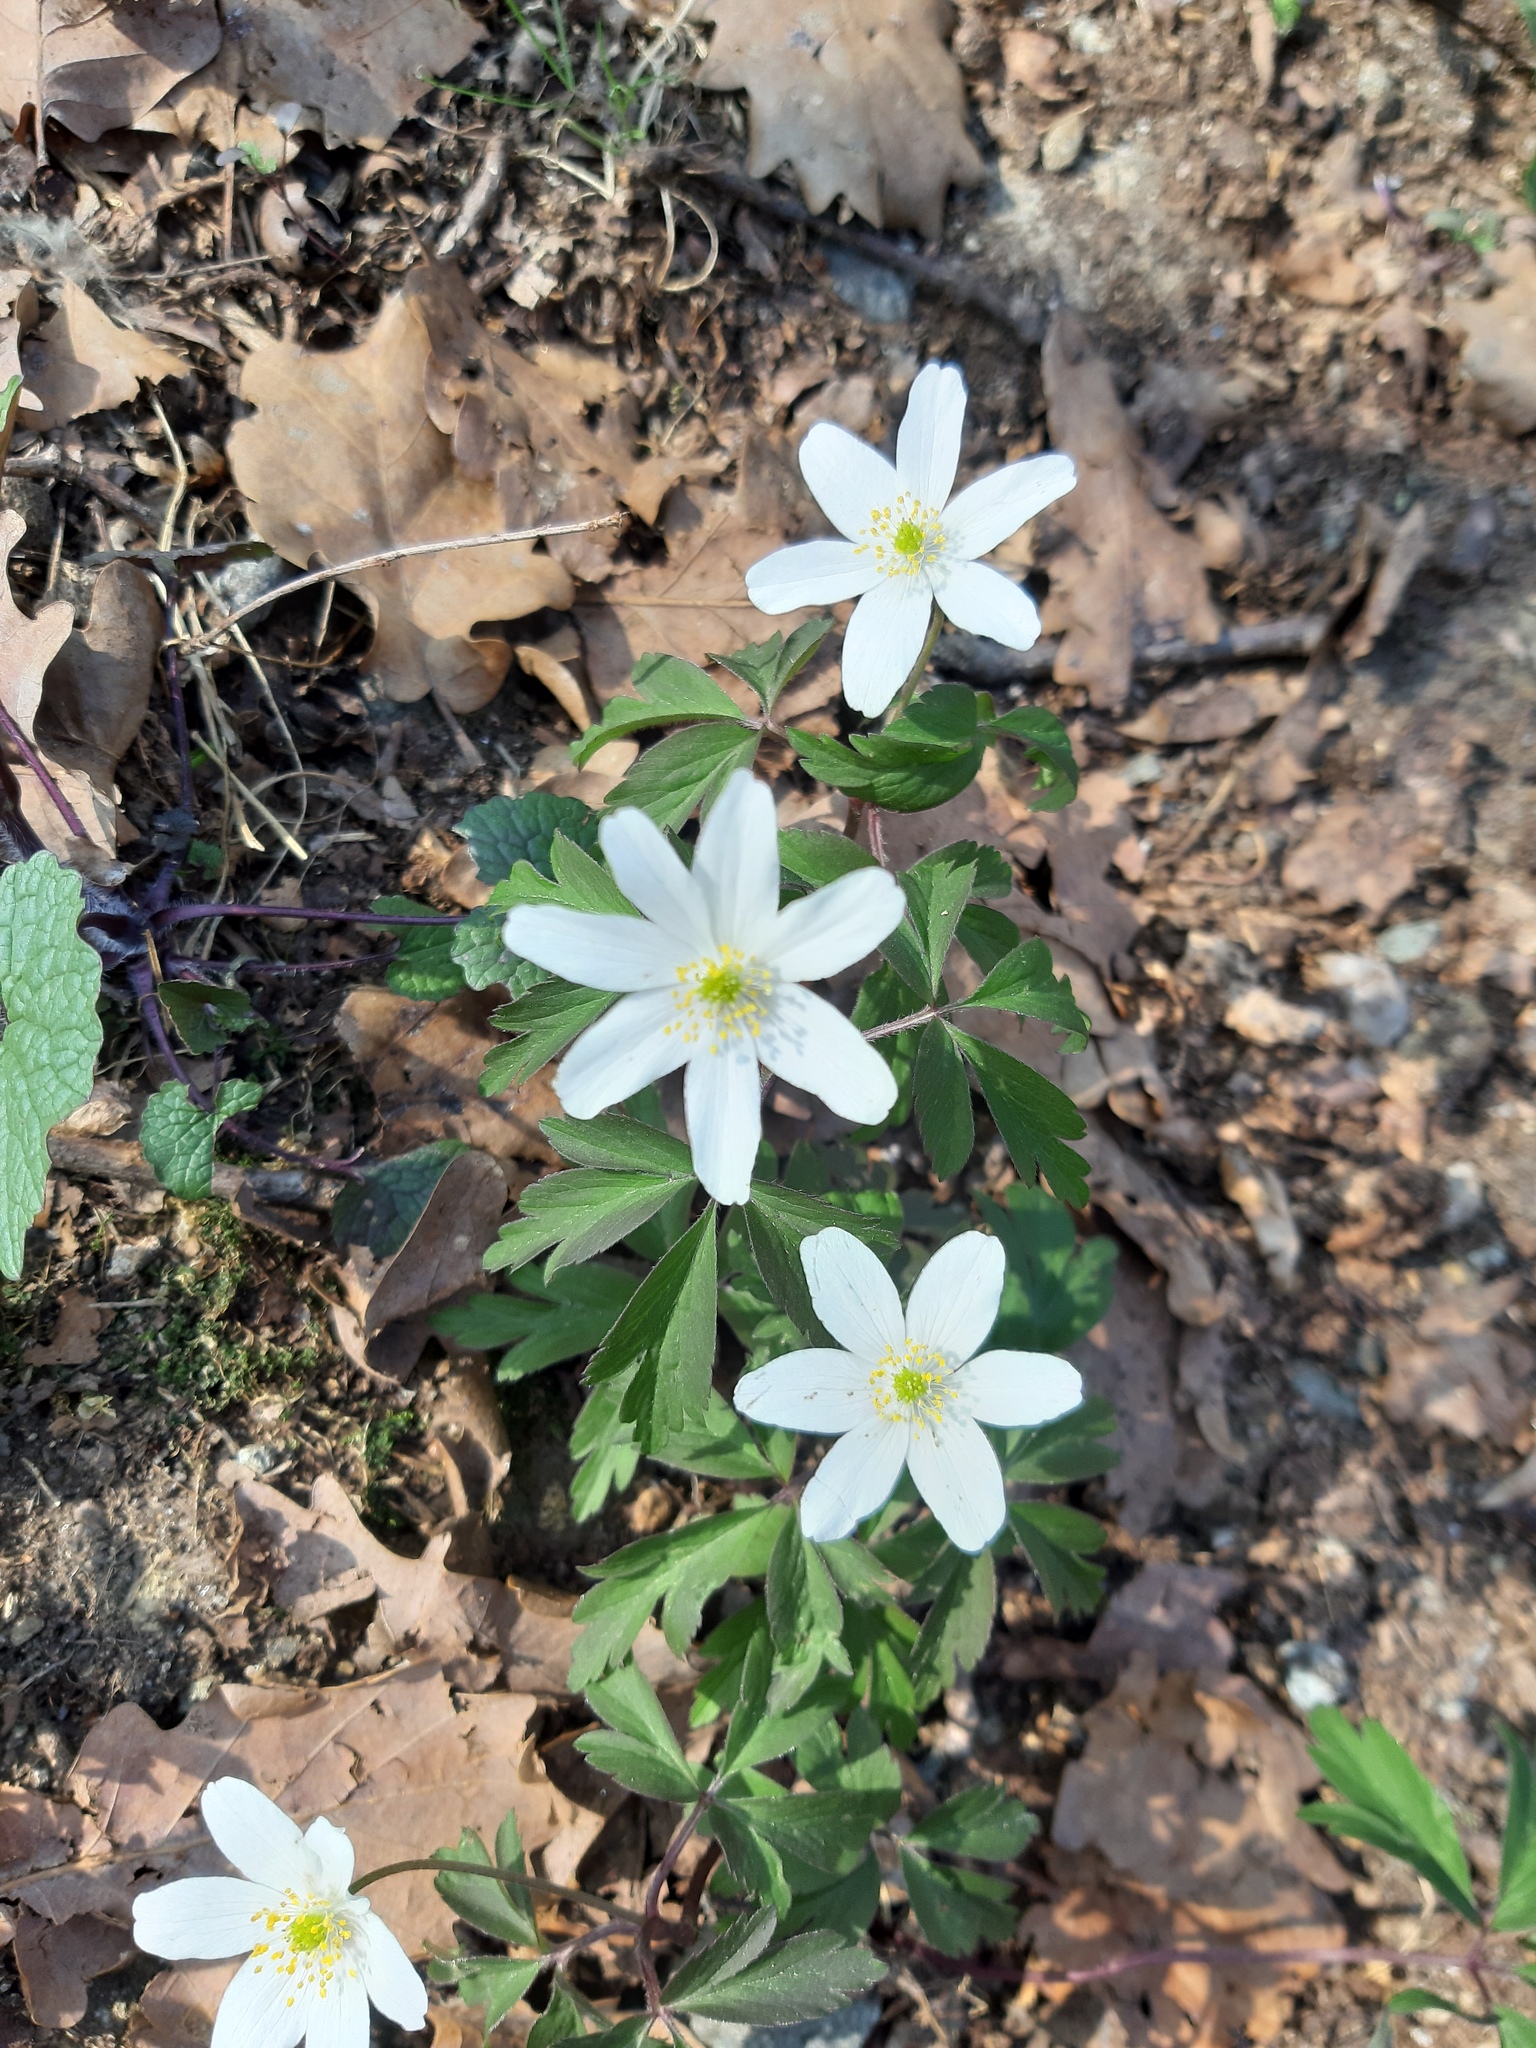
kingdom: Plantae
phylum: Tracheophyta
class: Magnoliopsida
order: Ranunculales
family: Ranunculaceae
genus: Anemone
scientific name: Anemone nemorosa
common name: Wood anemone
